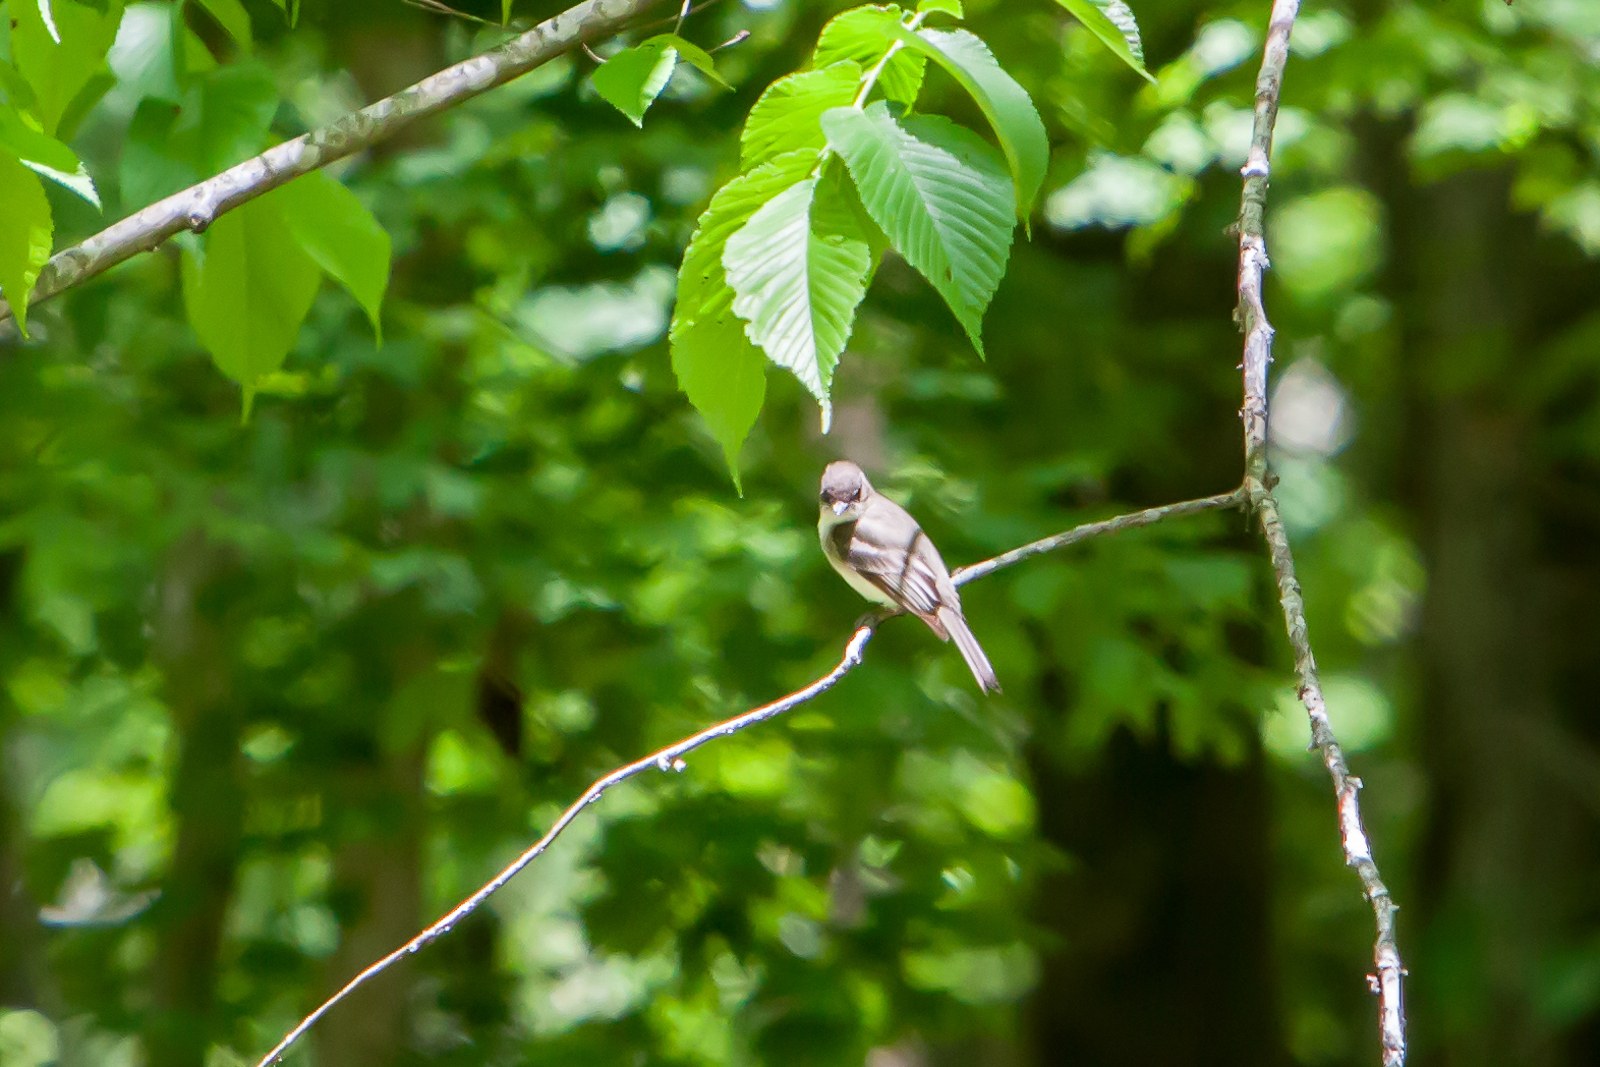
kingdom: Animalia
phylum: Chordata
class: Aves
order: Passeriformes
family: Tyrannidae
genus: Myiarchus
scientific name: Myiarchus crinitus
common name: Great crested flycatcher
